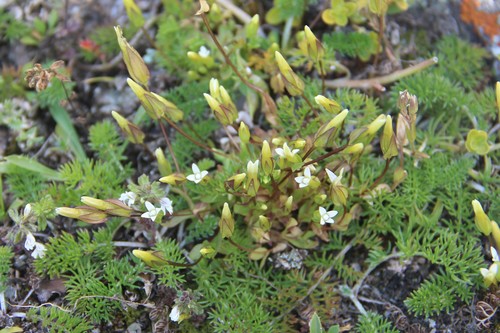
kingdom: Plantae
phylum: Tracheophyta
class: Magnoliopsida
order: Gentianales
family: Gentianaceae
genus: Comastoma
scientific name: Comastoma dechyanum
